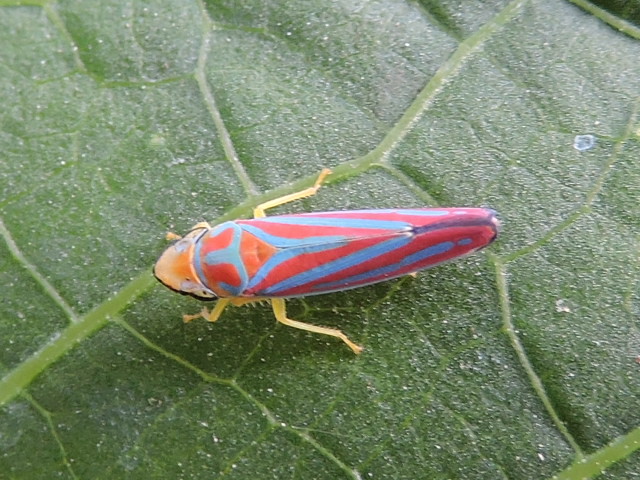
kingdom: Animalia
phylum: Arthropoda
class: Insecta
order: Hemiptera
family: Cicadellidae
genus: Graphocephala
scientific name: Graphocephala coccinea
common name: Candy-striped leafhopper
